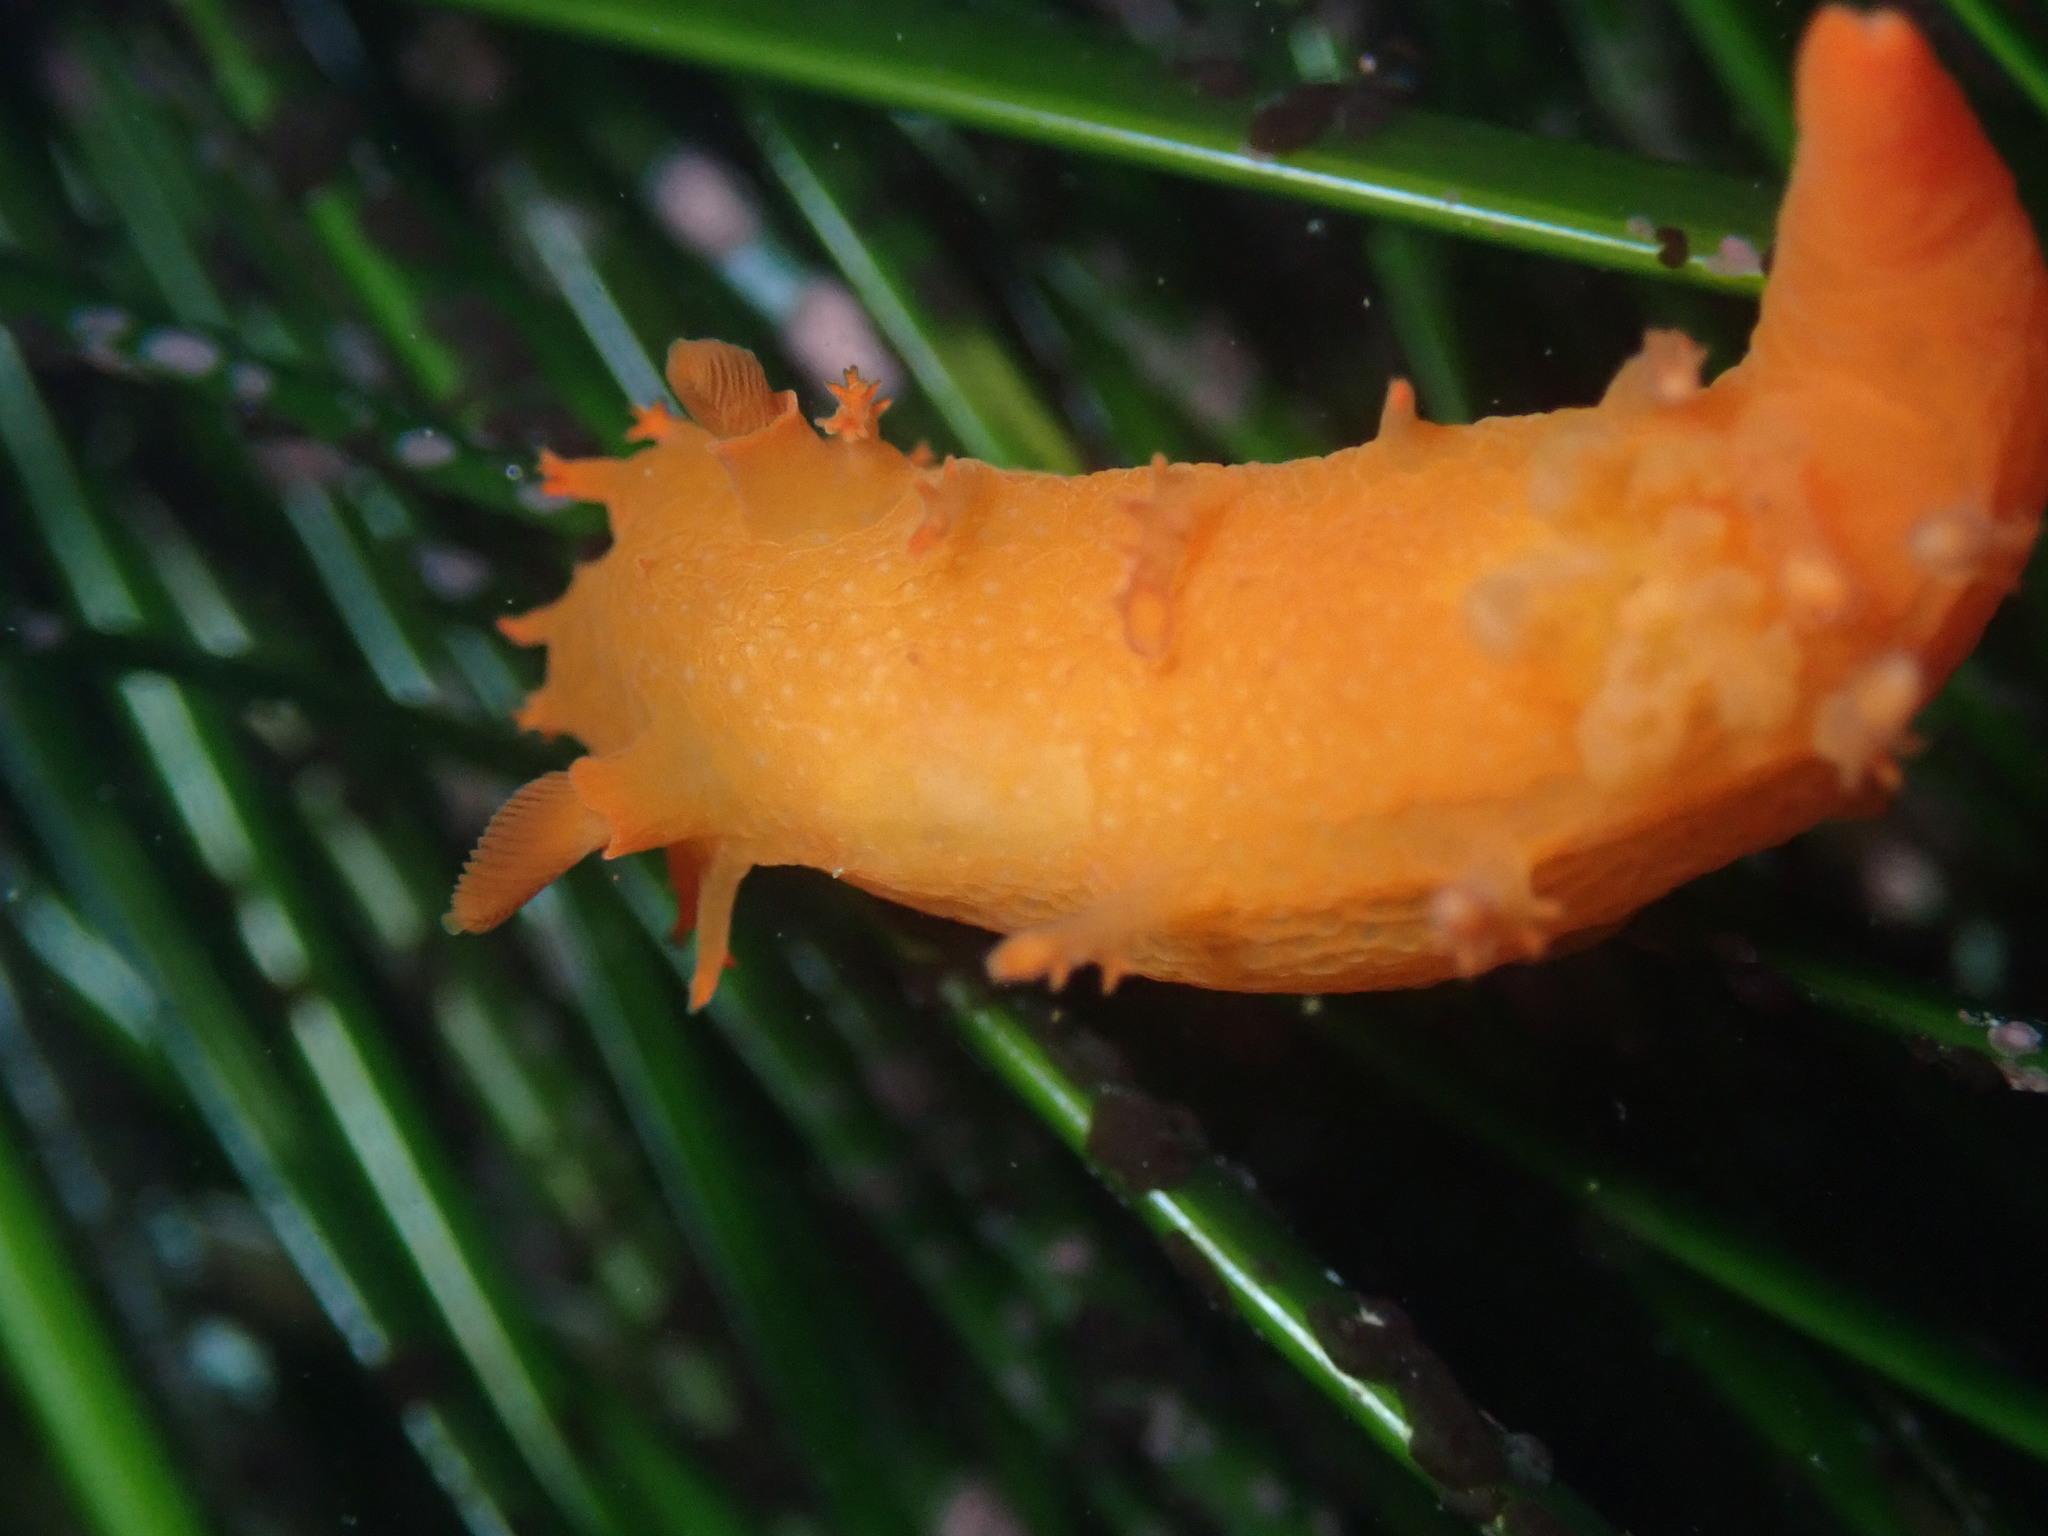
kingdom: Animalia
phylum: Mollusca
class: Gastropoda
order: Nudibranchia
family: Polyceridae
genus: Triopha
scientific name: Triopha maculata
